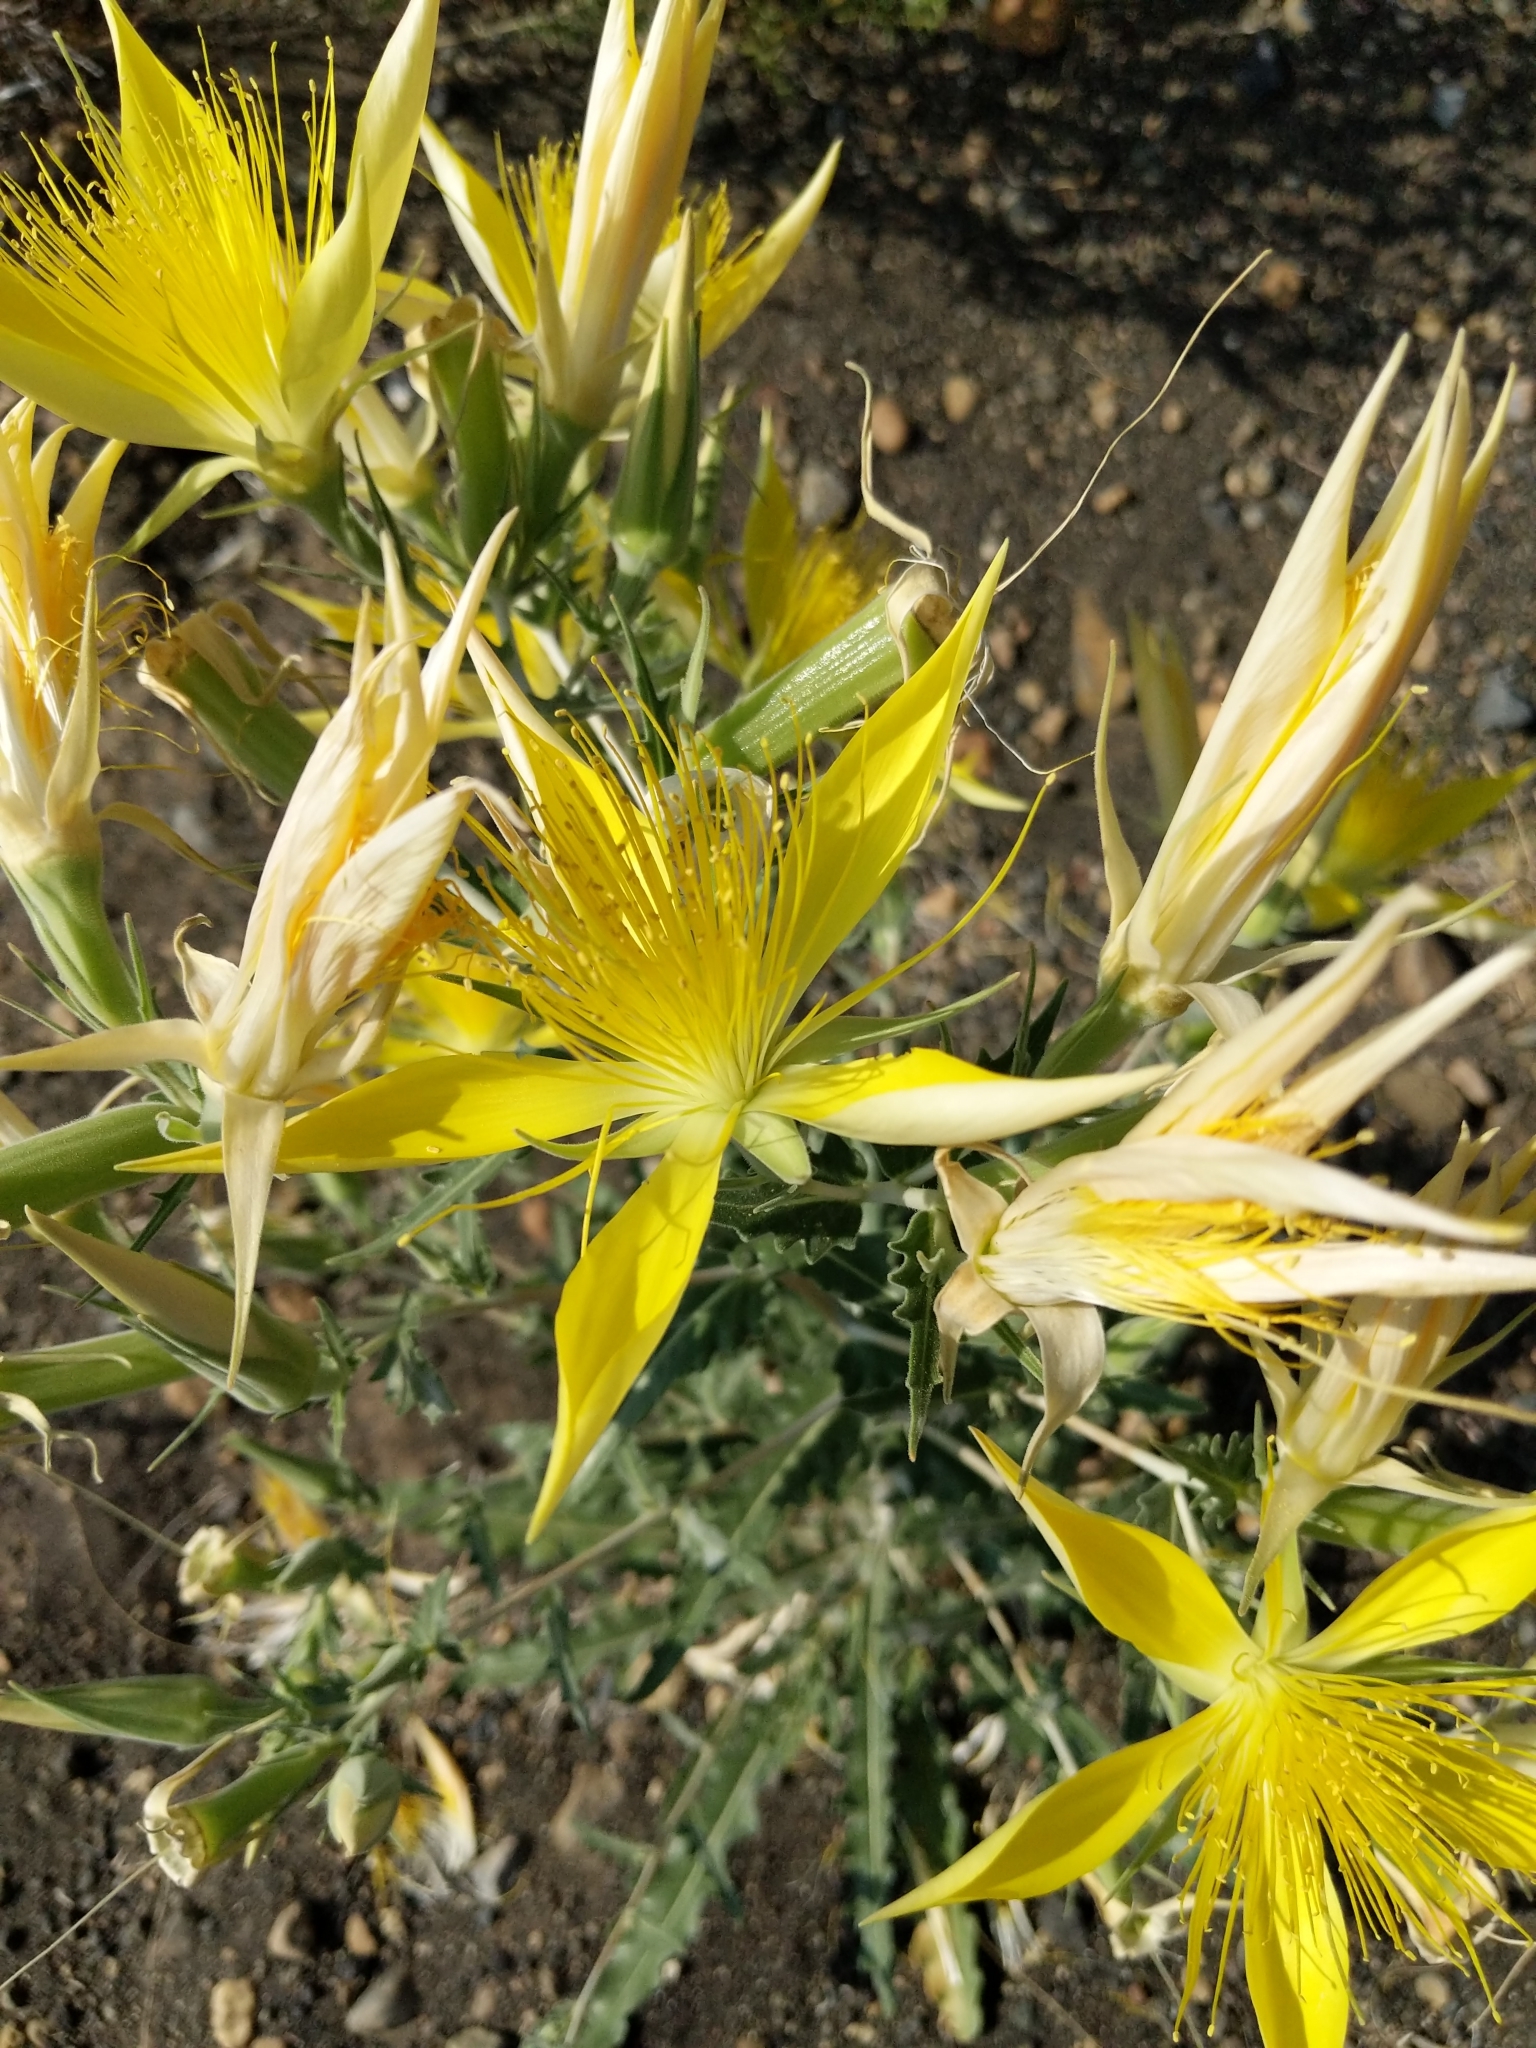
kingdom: Plantae
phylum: Tracheophyta
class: Magnoliopsida
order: Cornales
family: Loasaceae
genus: Mentzelia
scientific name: Mentzelia laevicaulis
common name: Smooth-stem blazingstar
